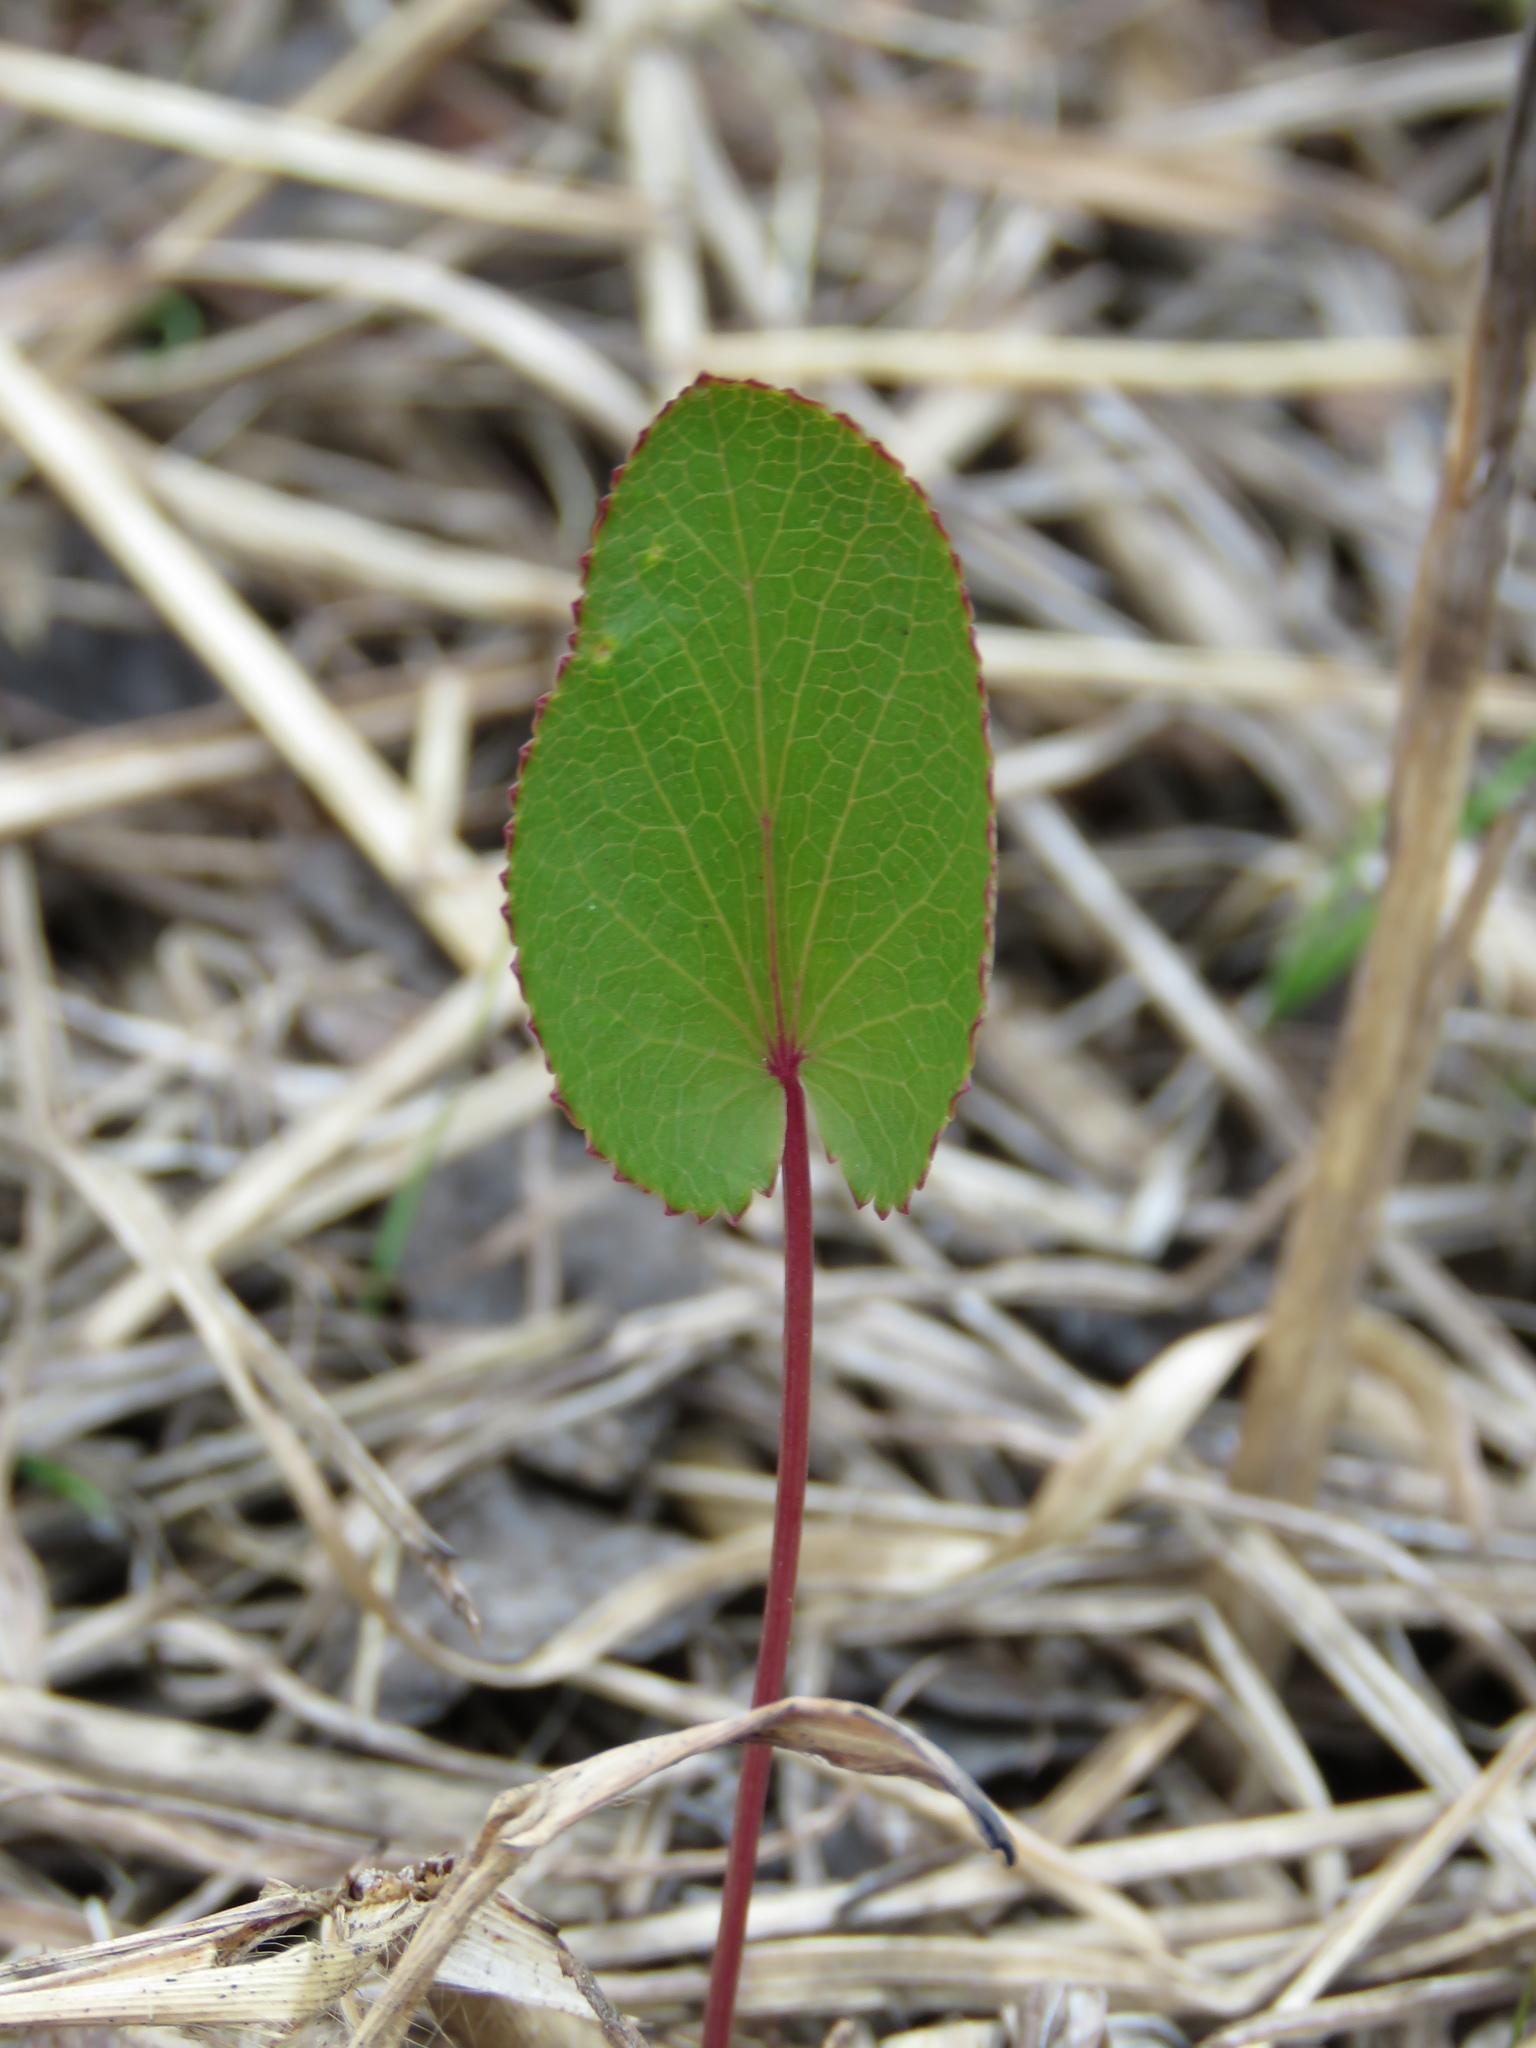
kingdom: Plantae
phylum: Tracheophyta
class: Magnoliopsida
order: Apiales
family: Apiaceae
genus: Zizia
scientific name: Zizia aptera
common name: Heart-leaved alexanders
